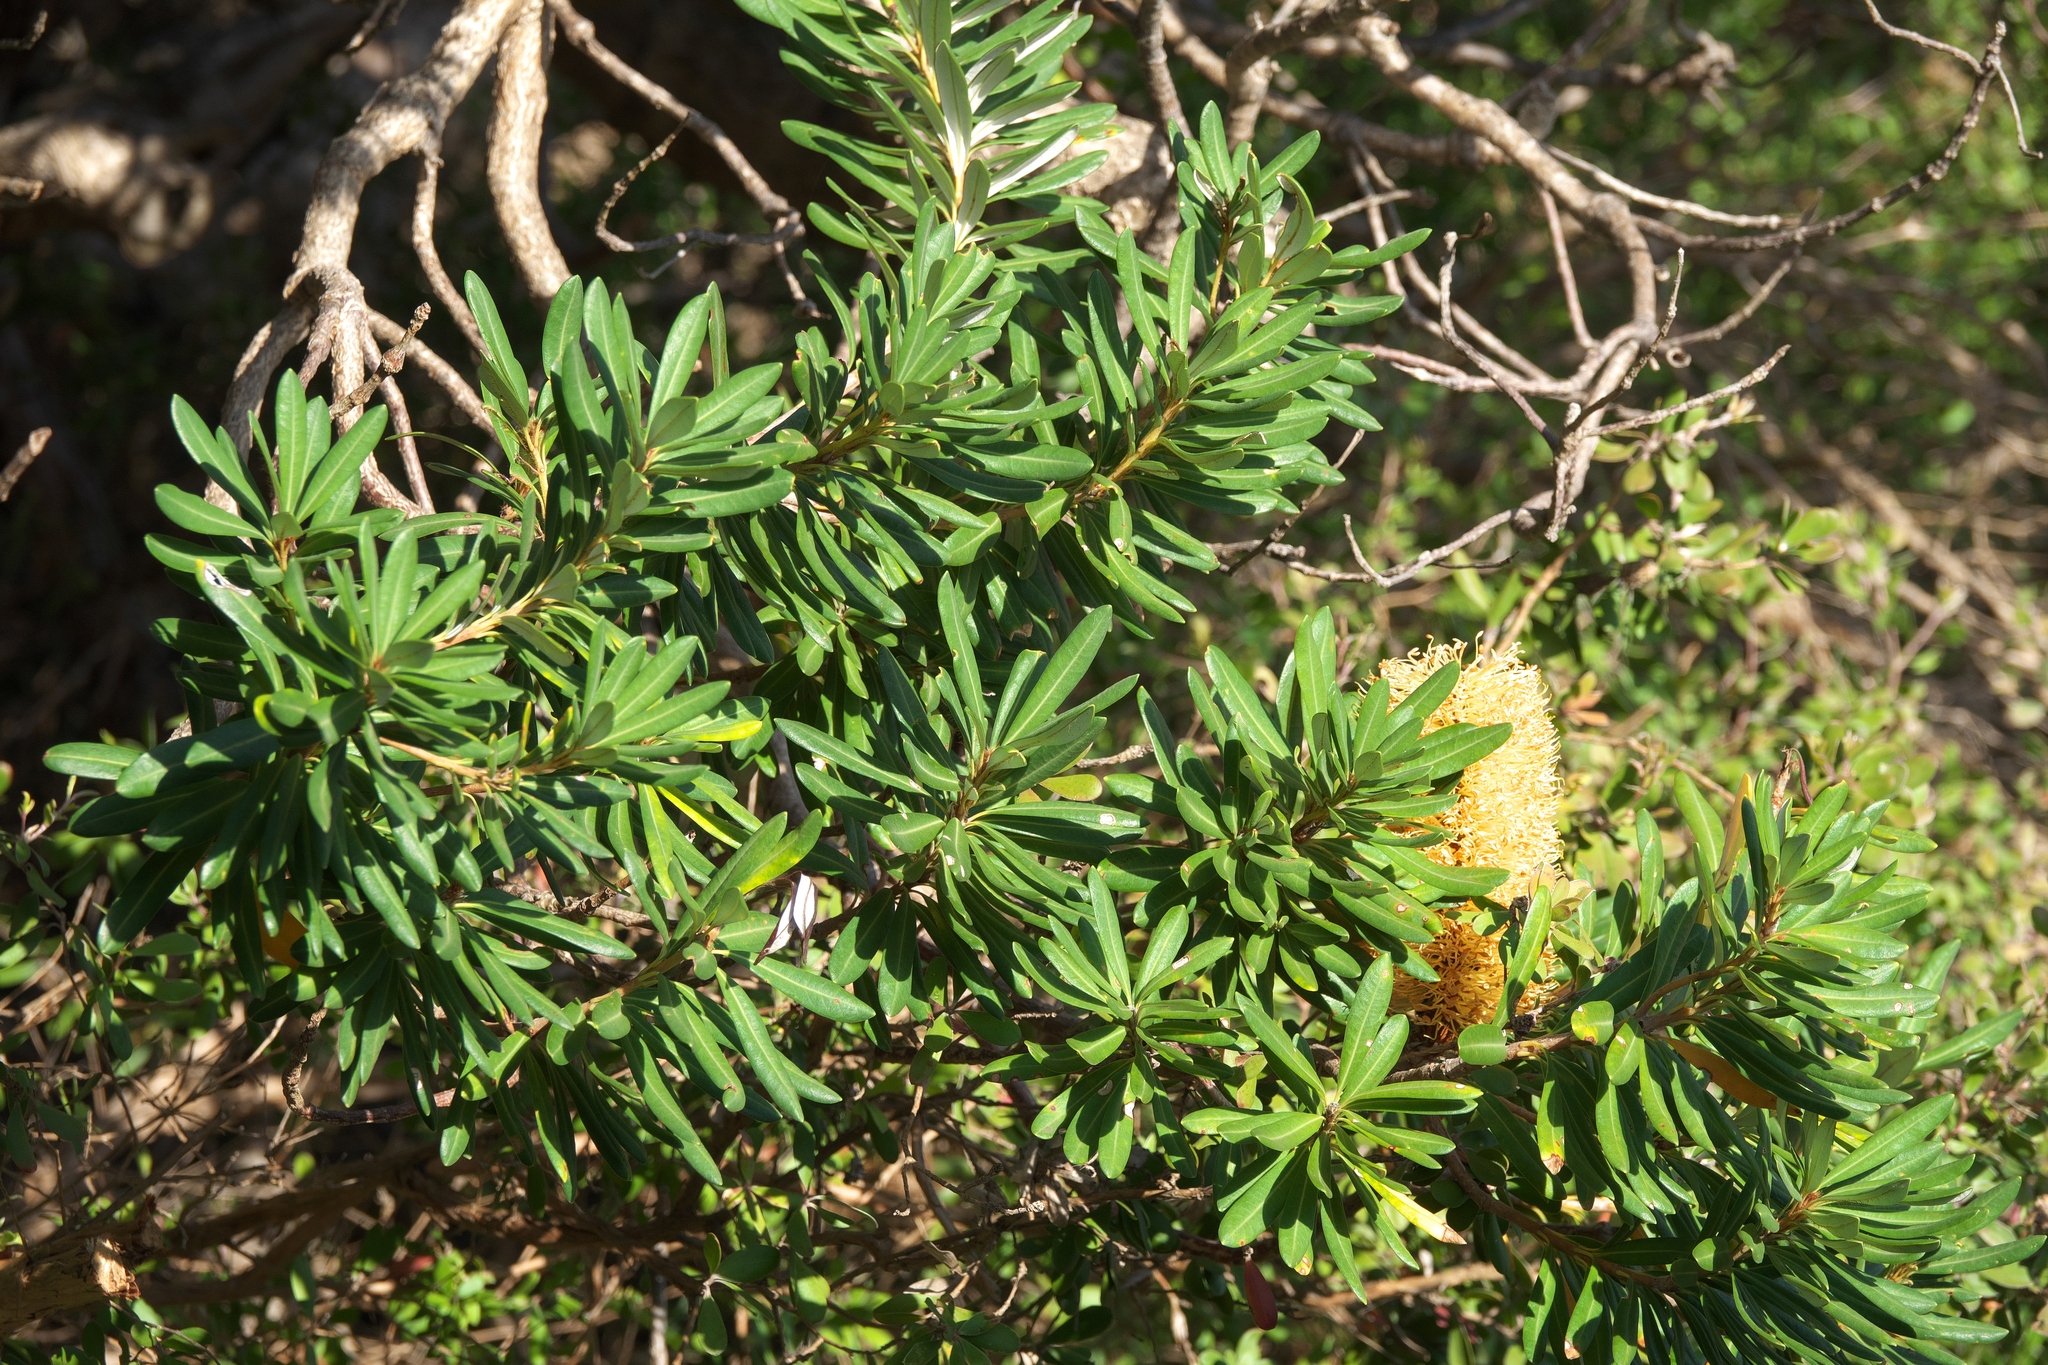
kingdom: Plantae
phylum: Tracheophyta
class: Magnoliopsida
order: Proteales
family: Proteaceae
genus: Banksia
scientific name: Banksia verticiliata
